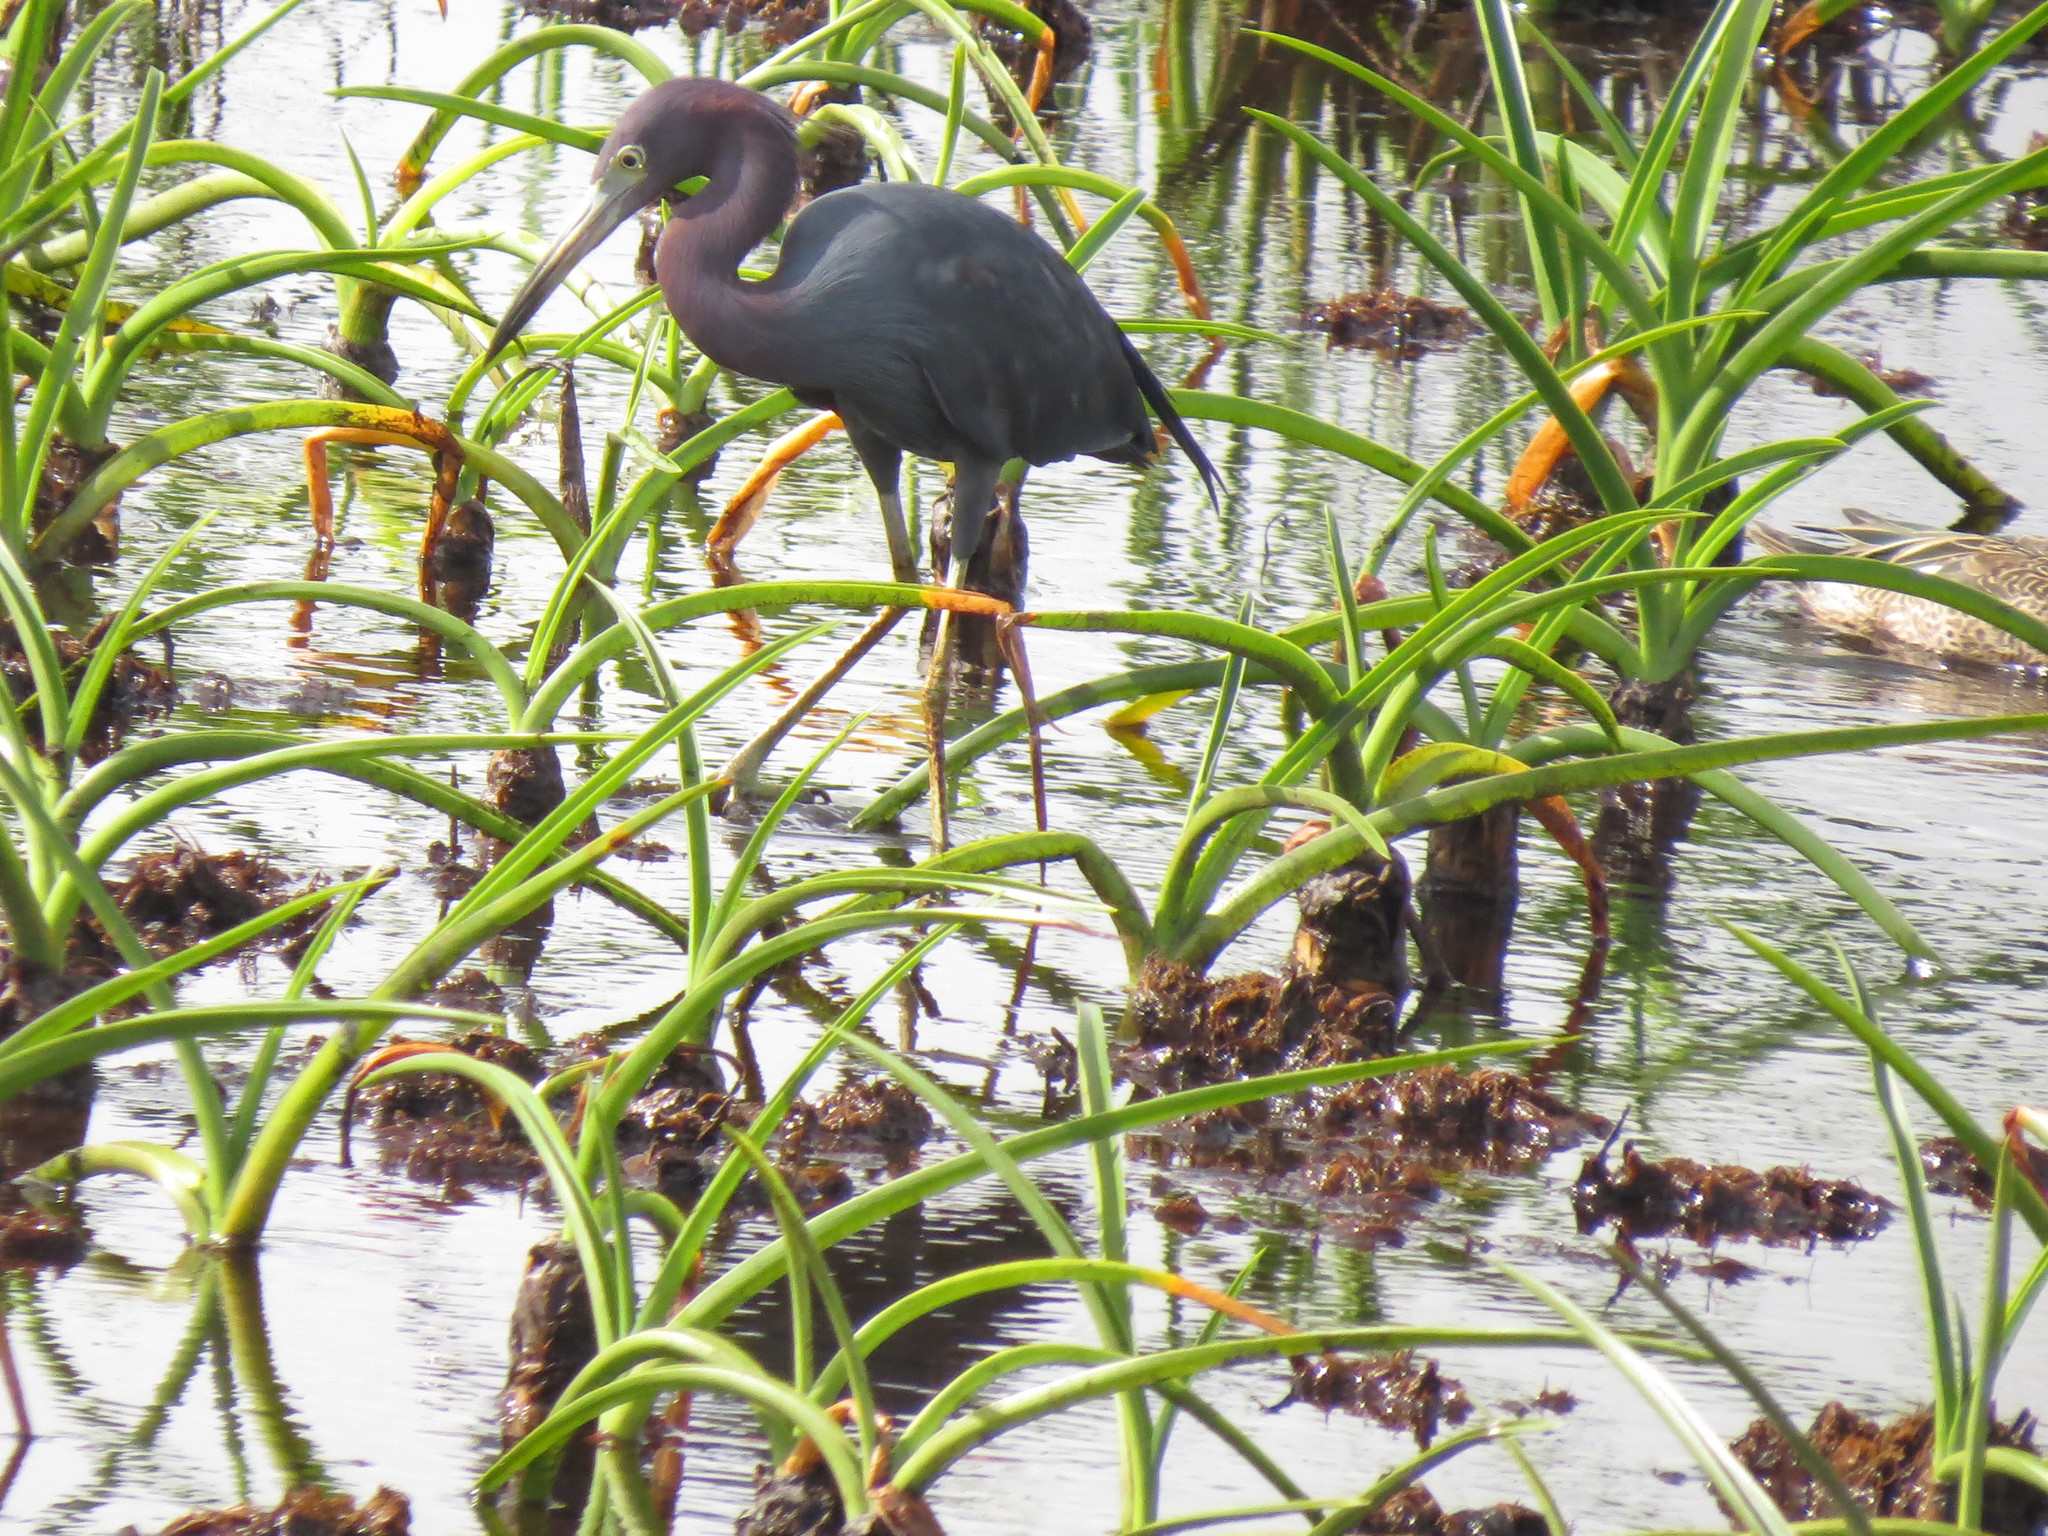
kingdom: Animalia
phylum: Chordata
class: Aves
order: Pelecaniformes
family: Ardeidae
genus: Egretta
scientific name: Egretta caerulea
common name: Little blue heron
